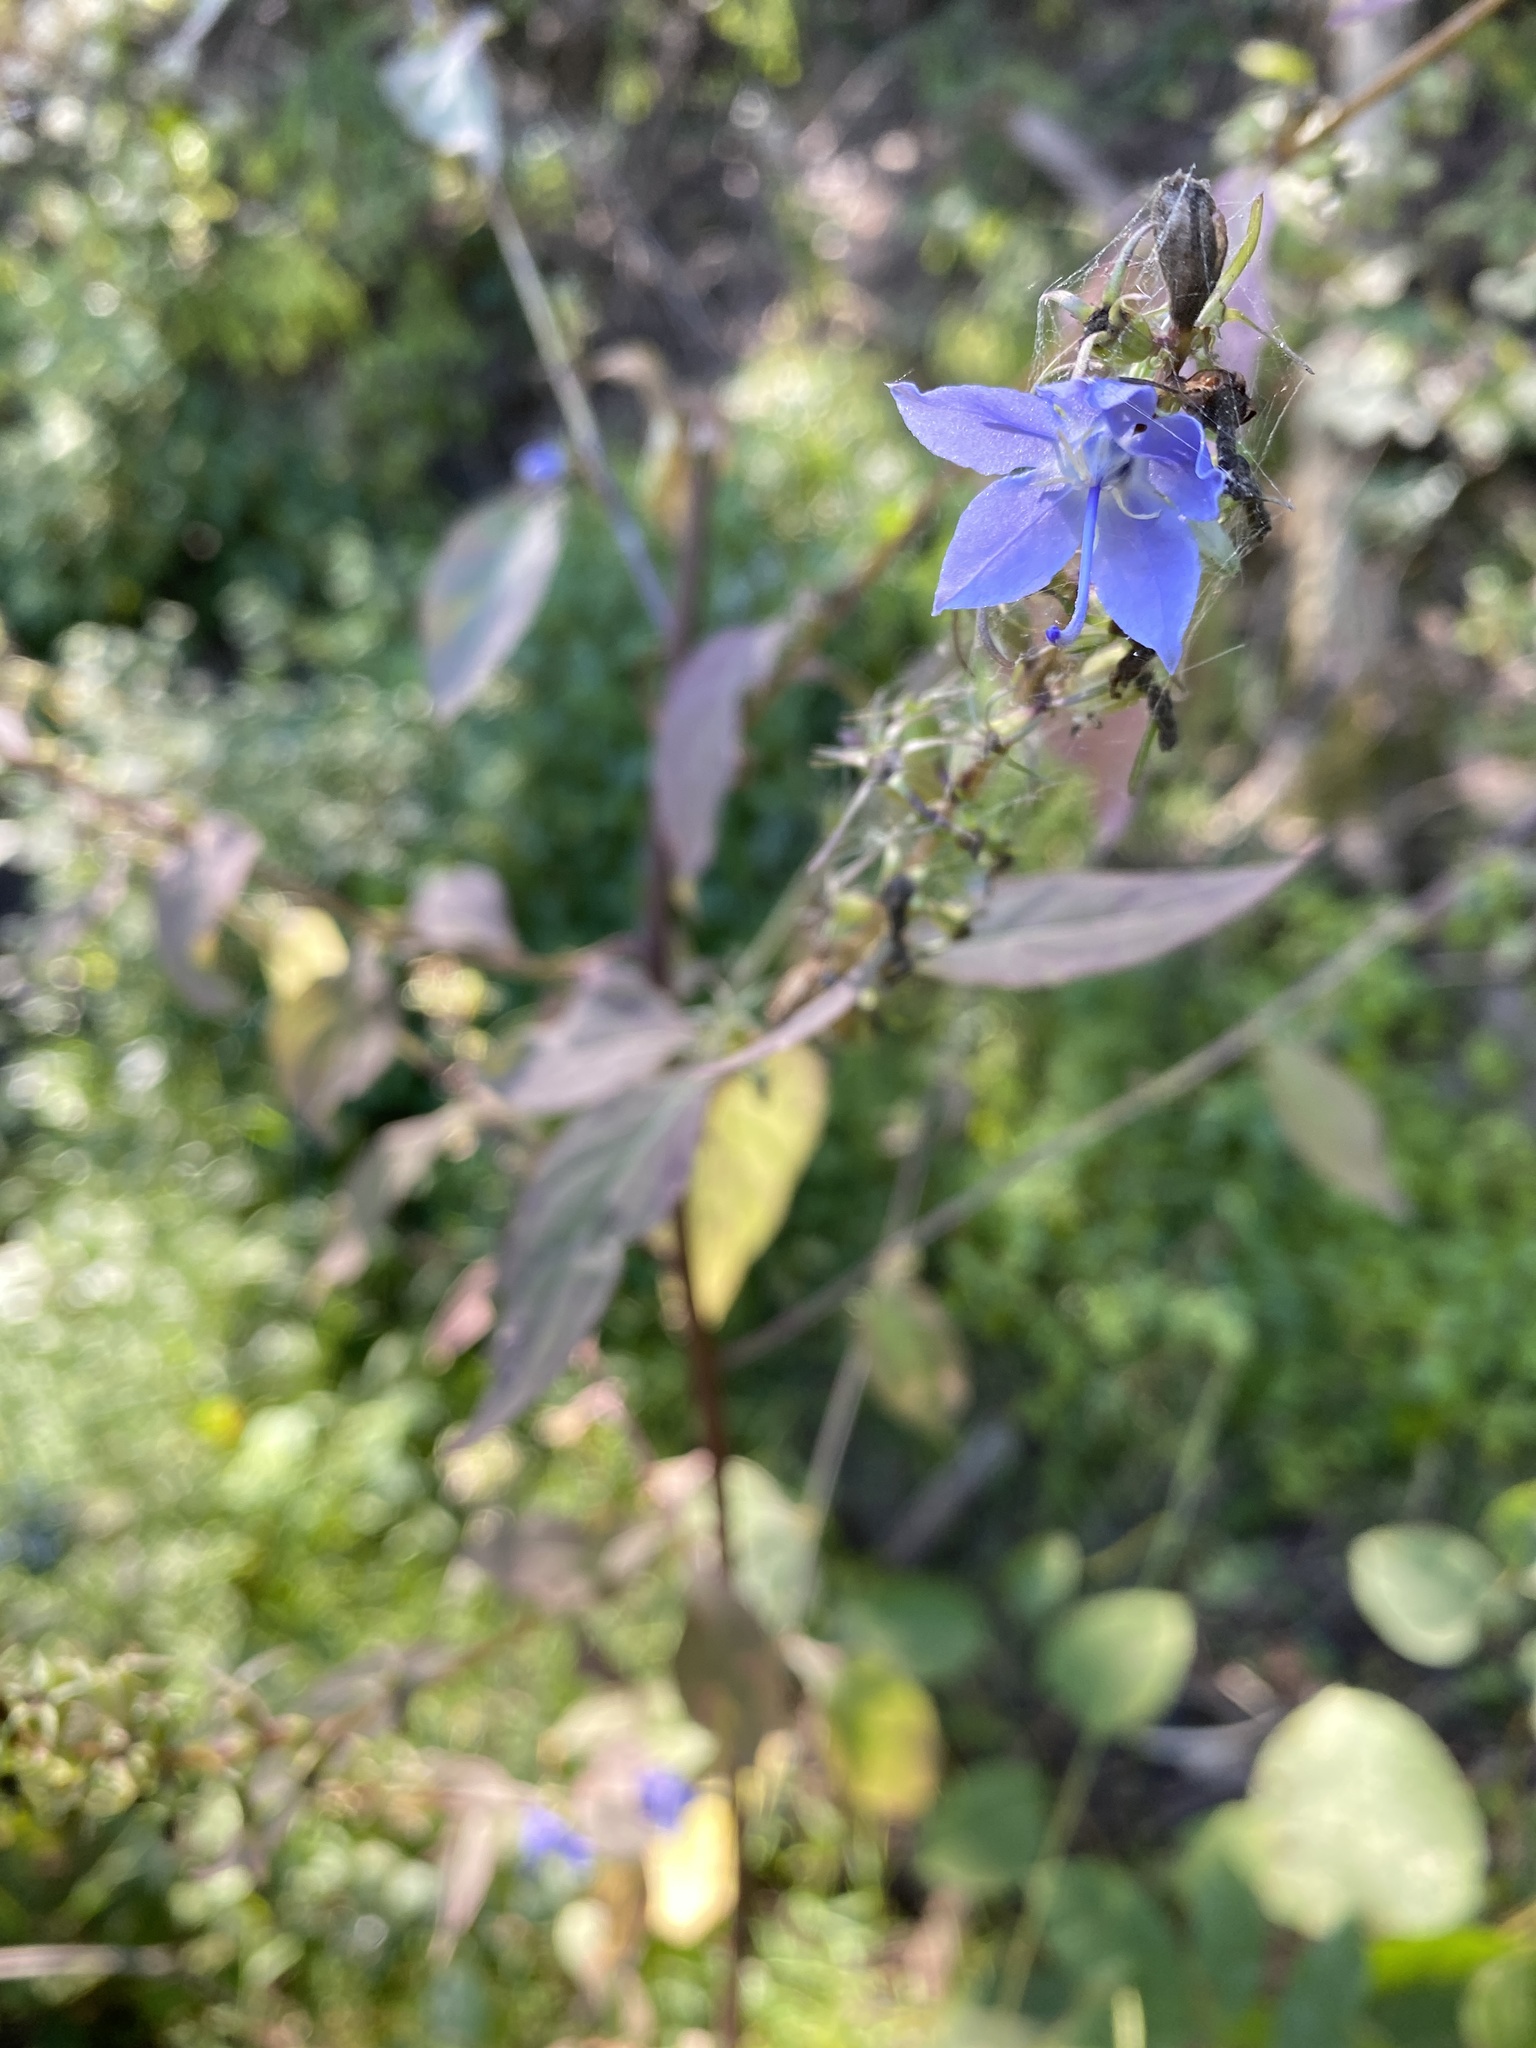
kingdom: Plantae
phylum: Tracheophyta
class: Magnoliopsida
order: Asterales
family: Campanulaceae
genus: Campanulastrum
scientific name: Campanulastrum americanum
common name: American bellflower
